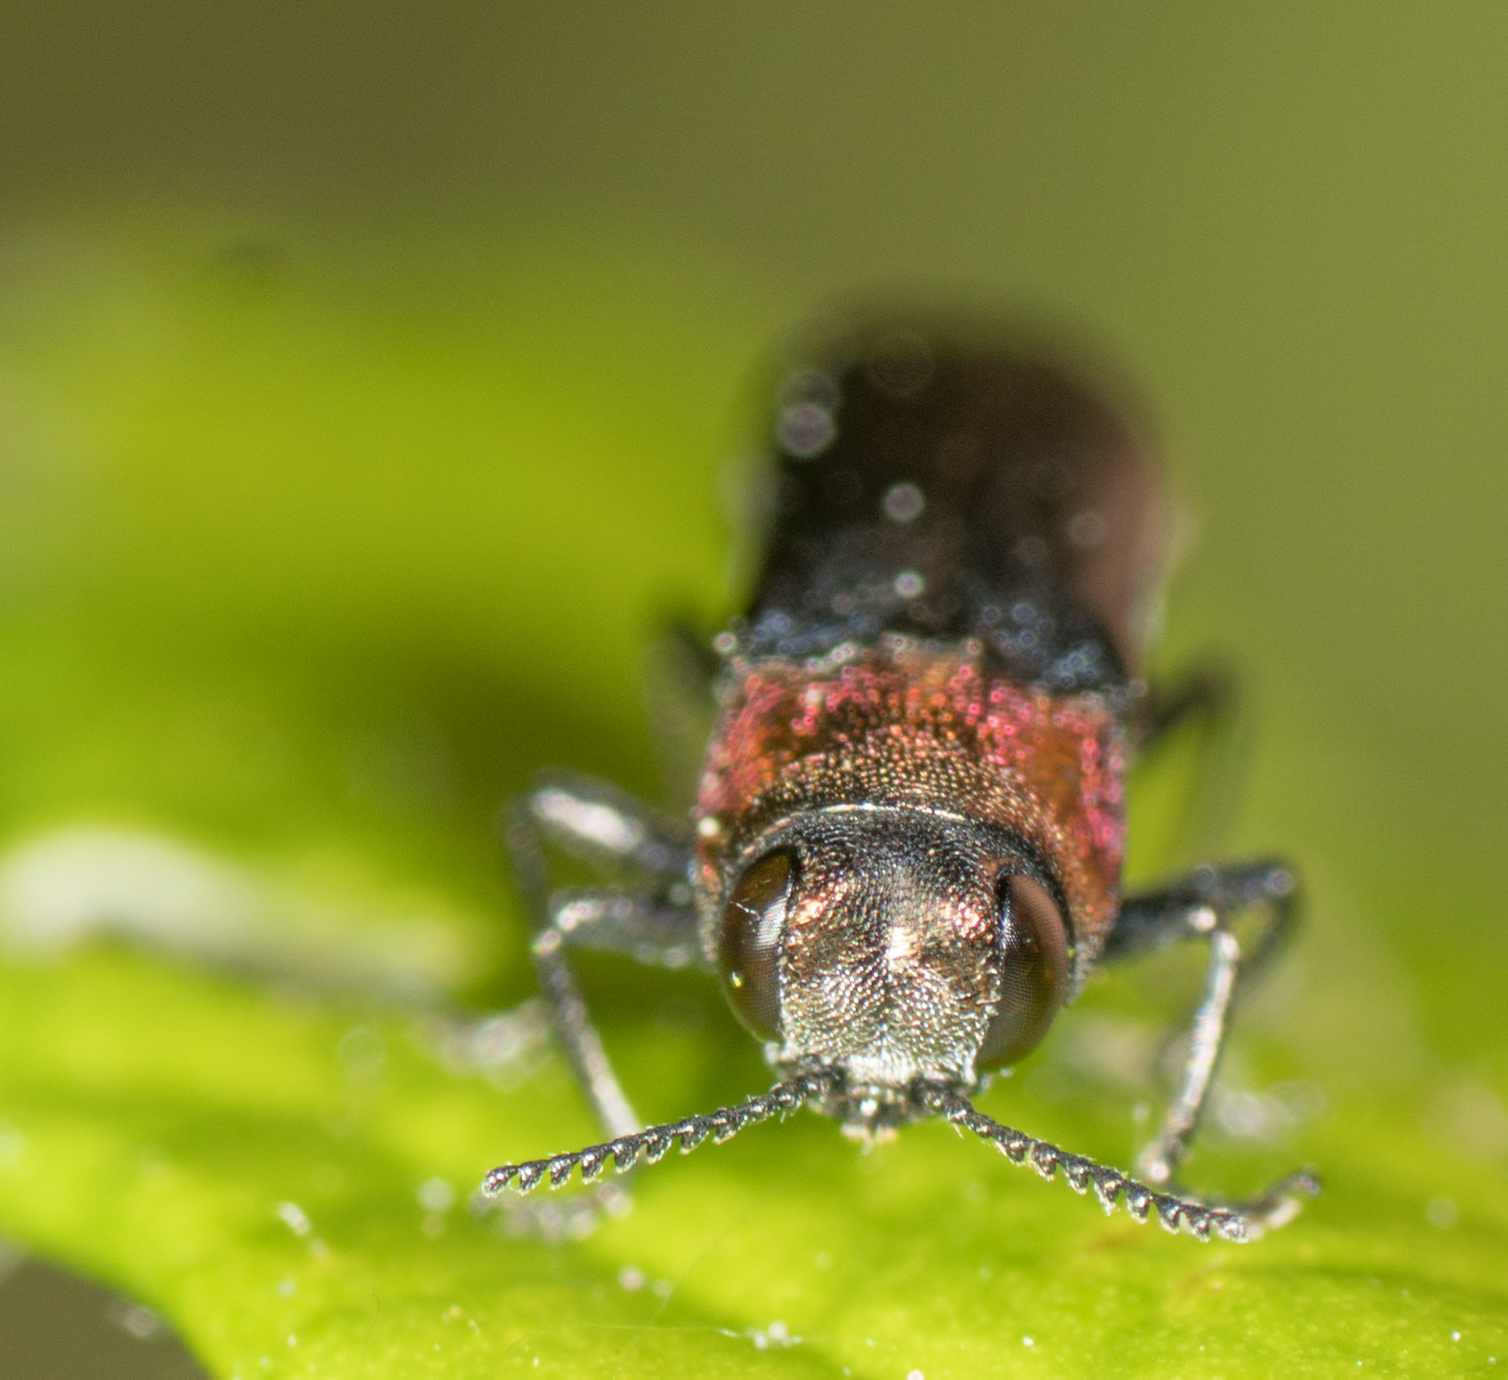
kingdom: Animalia
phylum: Arthropoda
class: Insecta
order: Coleoptera
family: Buprestidae
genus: Agrilus
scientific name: Agrilus ruficollis
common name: Red-necked cane borer beetle
